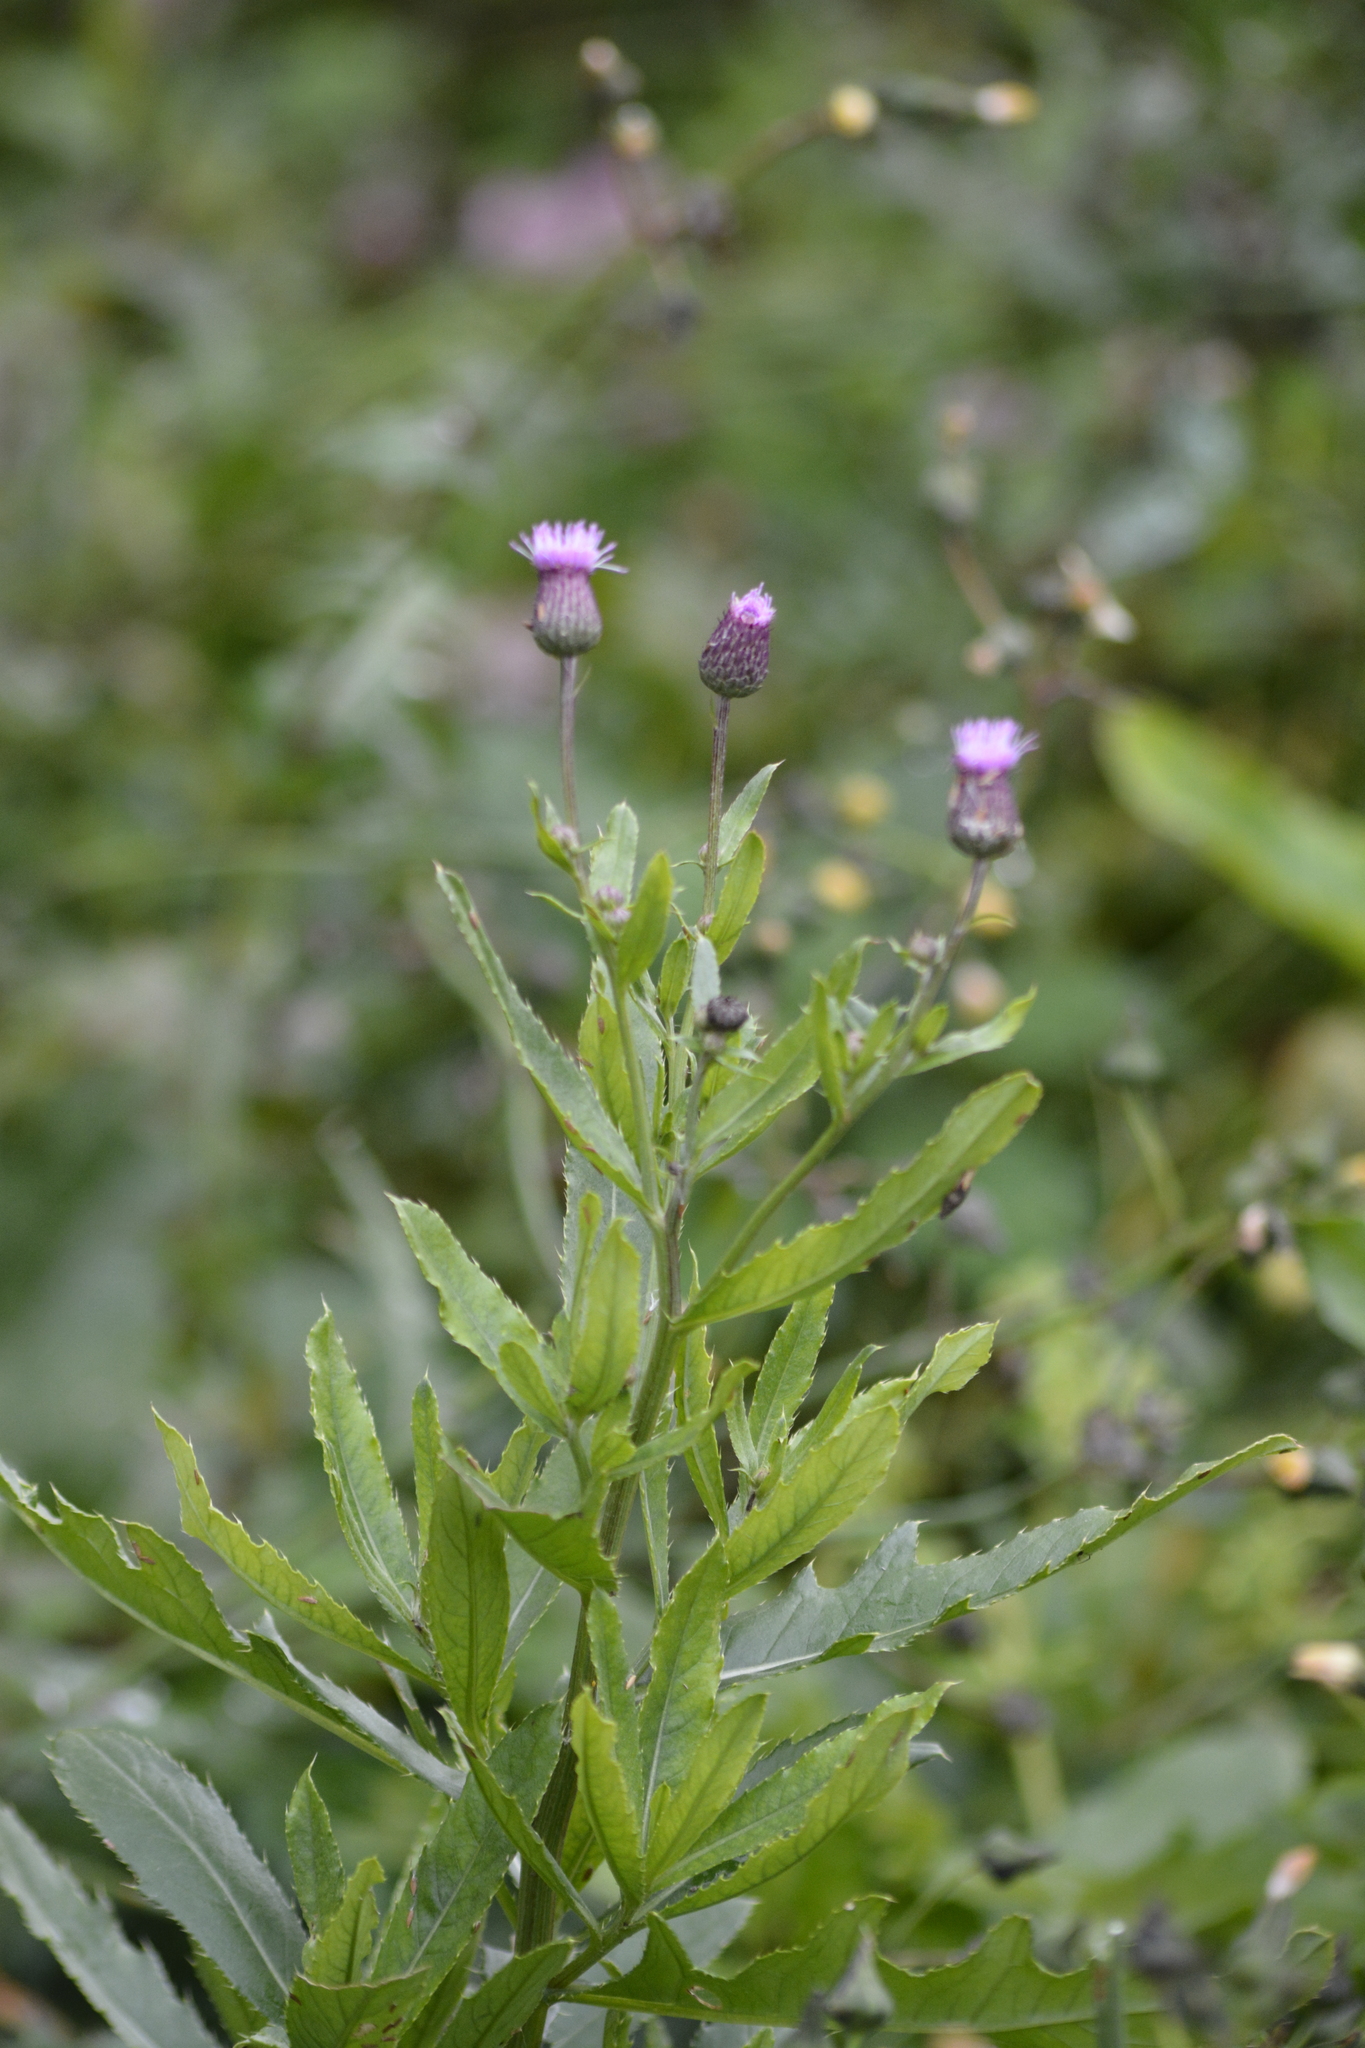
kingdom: Plantae
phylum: Tracheophyta
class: Magnoliopsida
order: Asterales
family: Asteraceae
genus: Cirsium
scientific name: Cirsium arvense
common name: Creeping thistle
